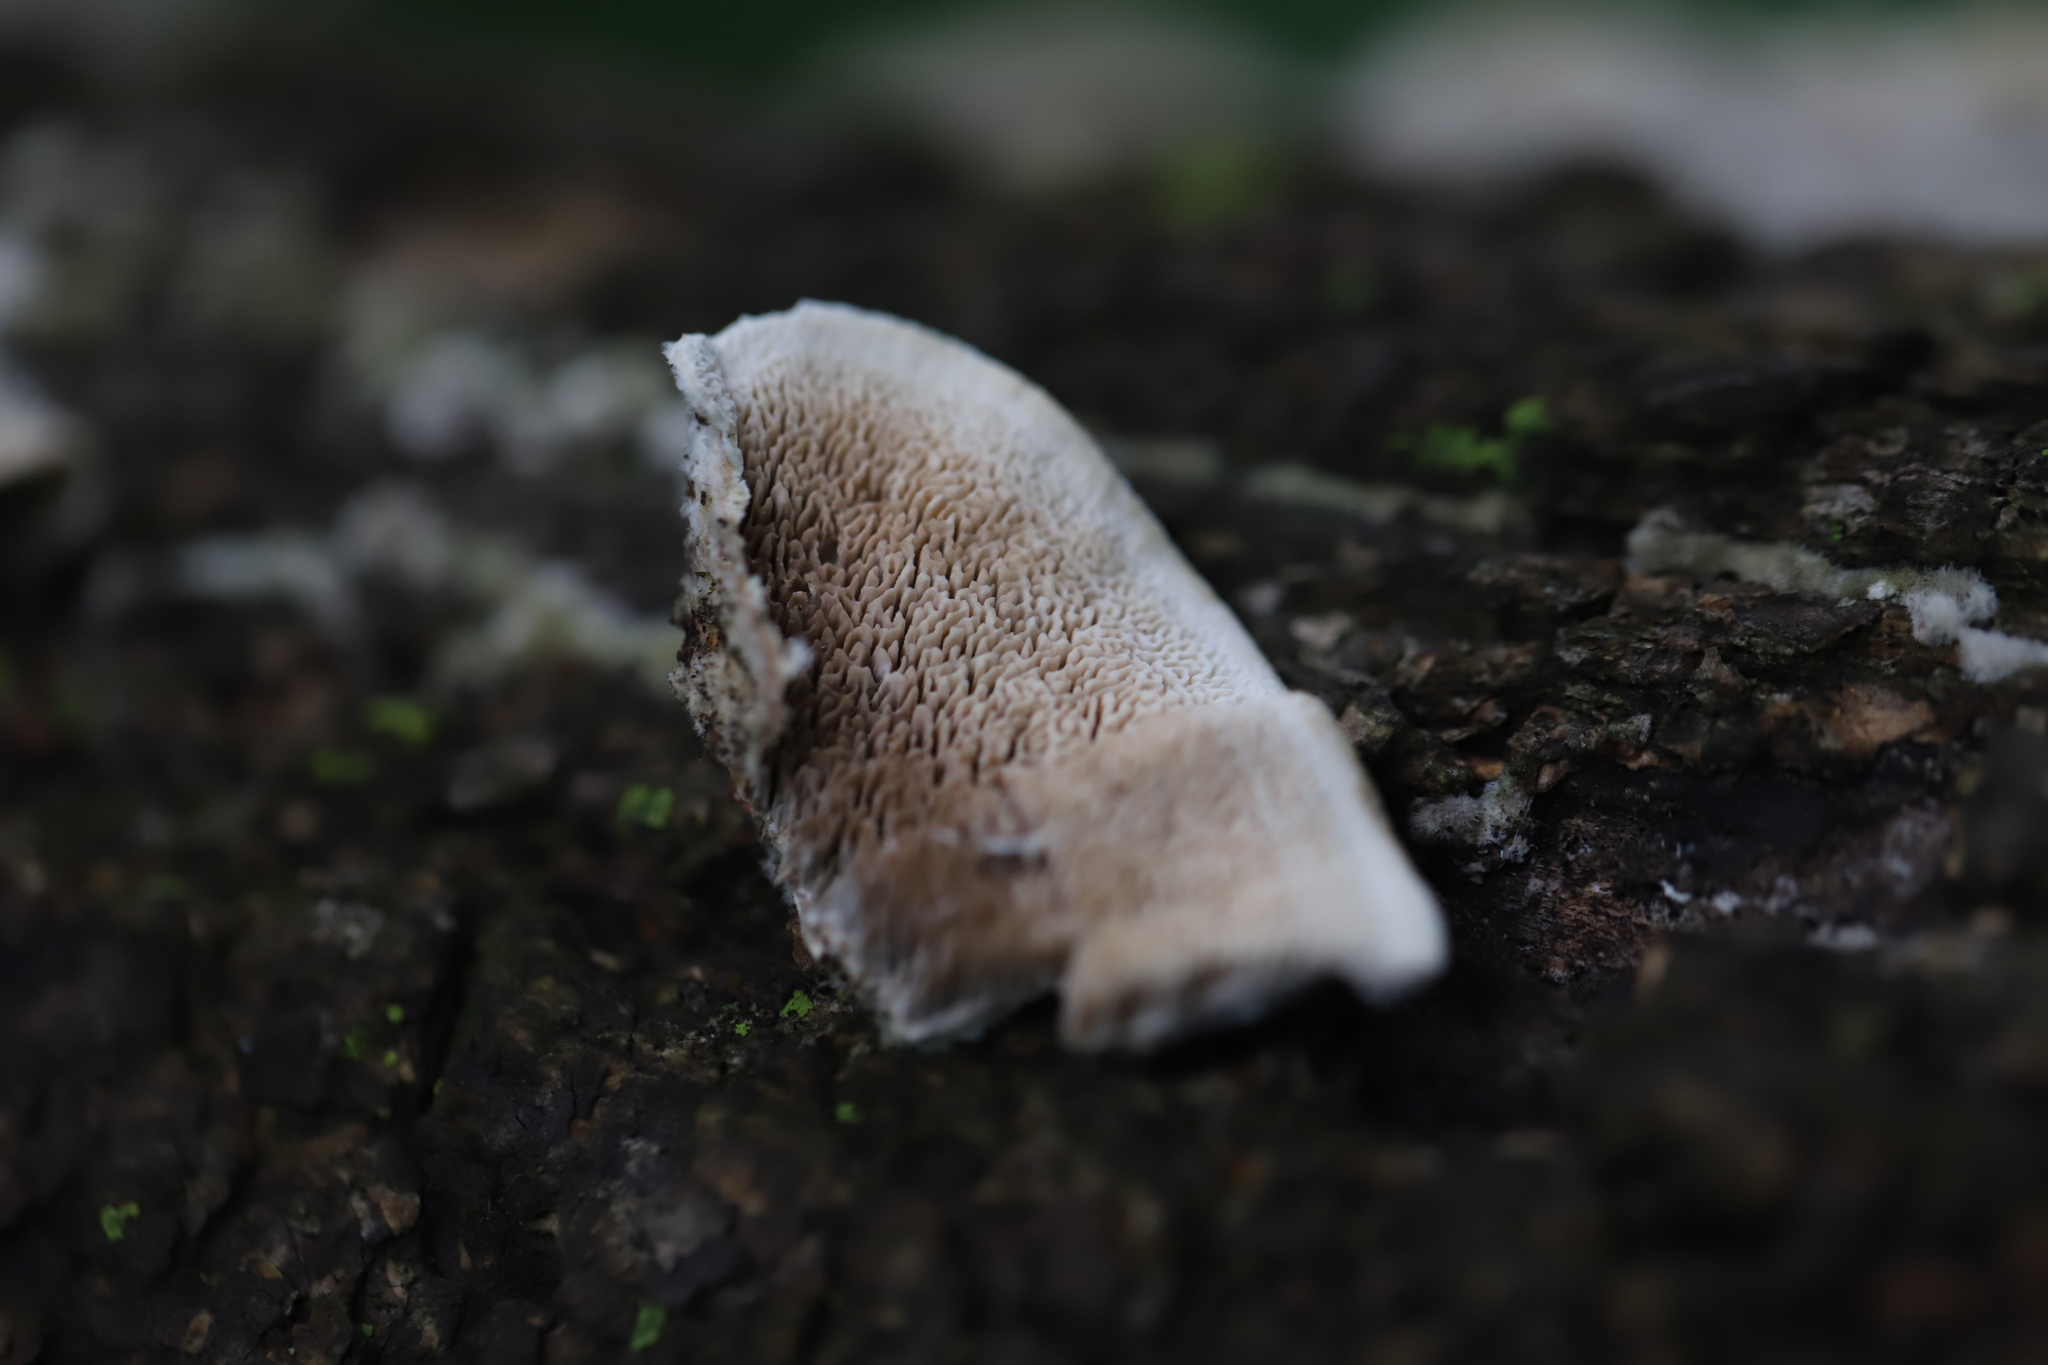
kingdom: Fungi
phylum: Basidiomycota
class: Agaricomycetes
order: Polyporales
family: Cerrenaceae
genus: Cerrena
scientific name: Cerrena unicolor
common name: Mossy maze polypore
